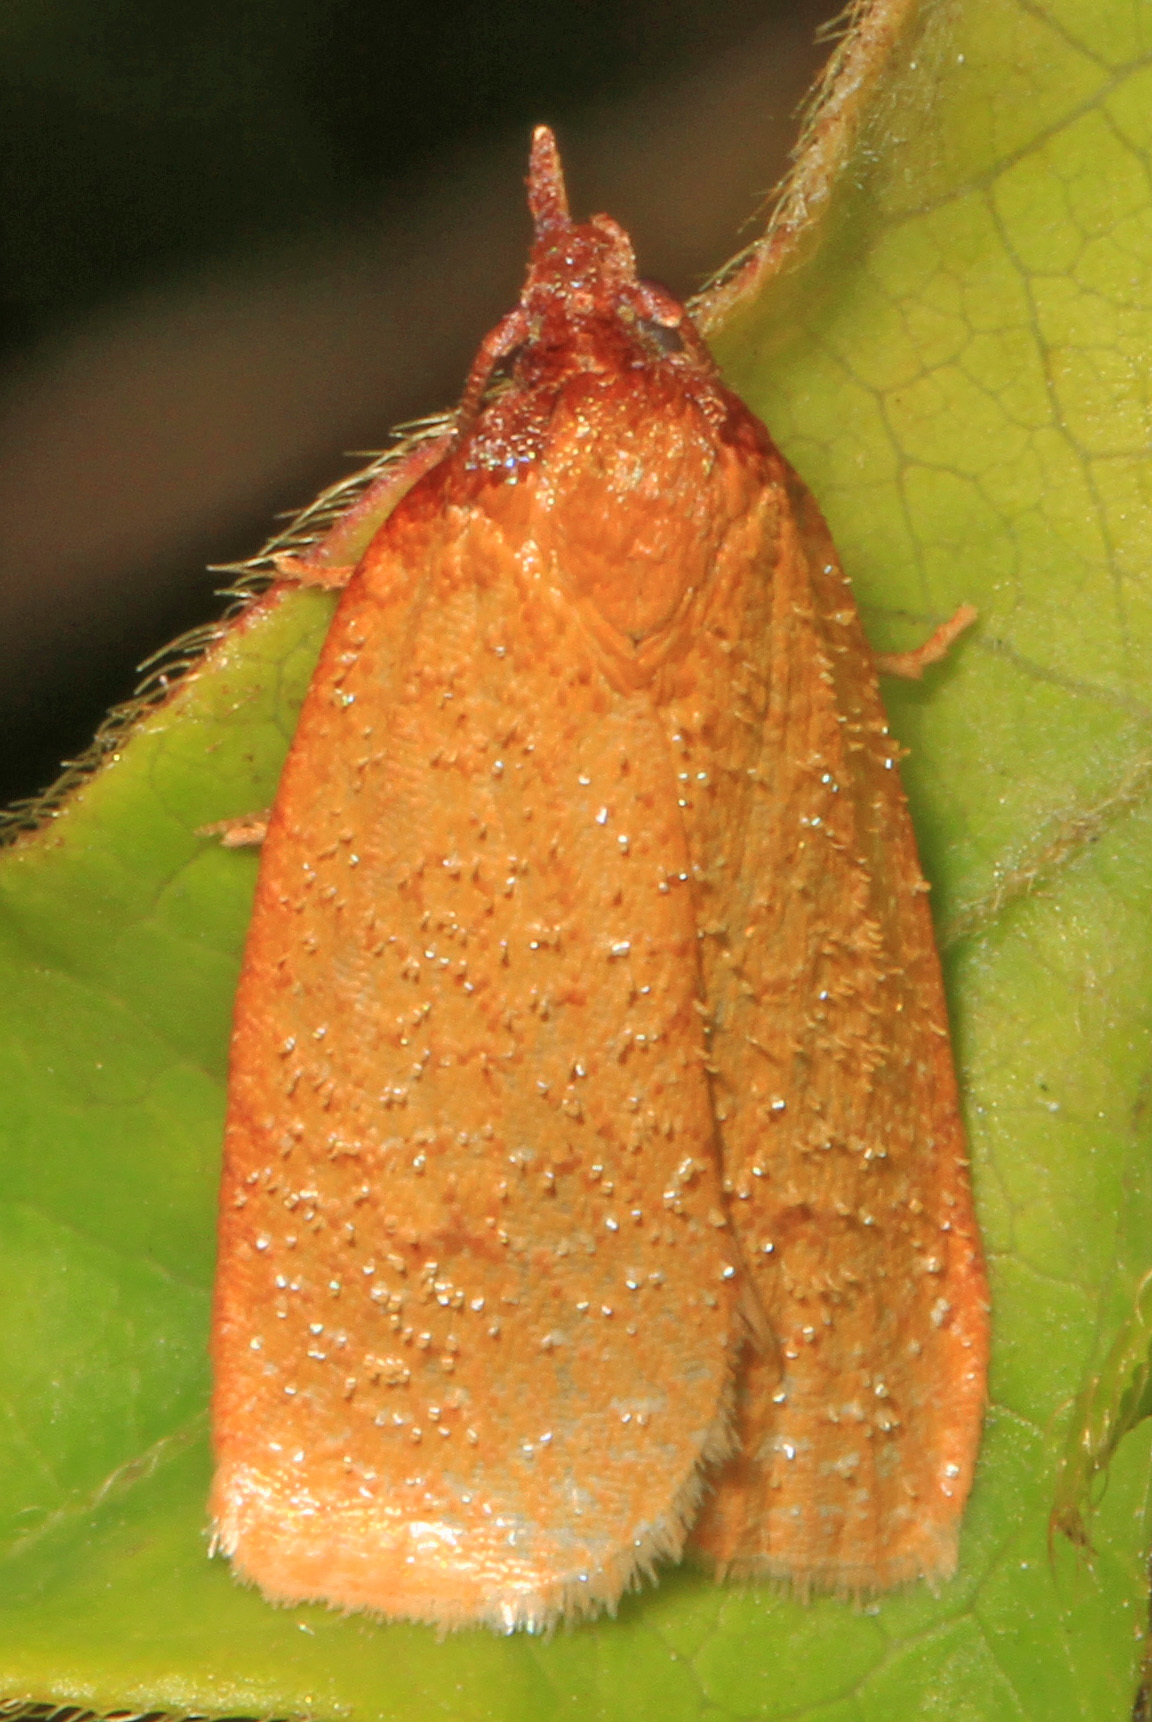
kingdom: Animalia
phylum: Arthropoda
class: Insecta
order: Lepidoptera
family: Tortricidae
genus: Sparganothis
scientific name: Sparganothis distincta
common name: Distinct sparganothis moth
